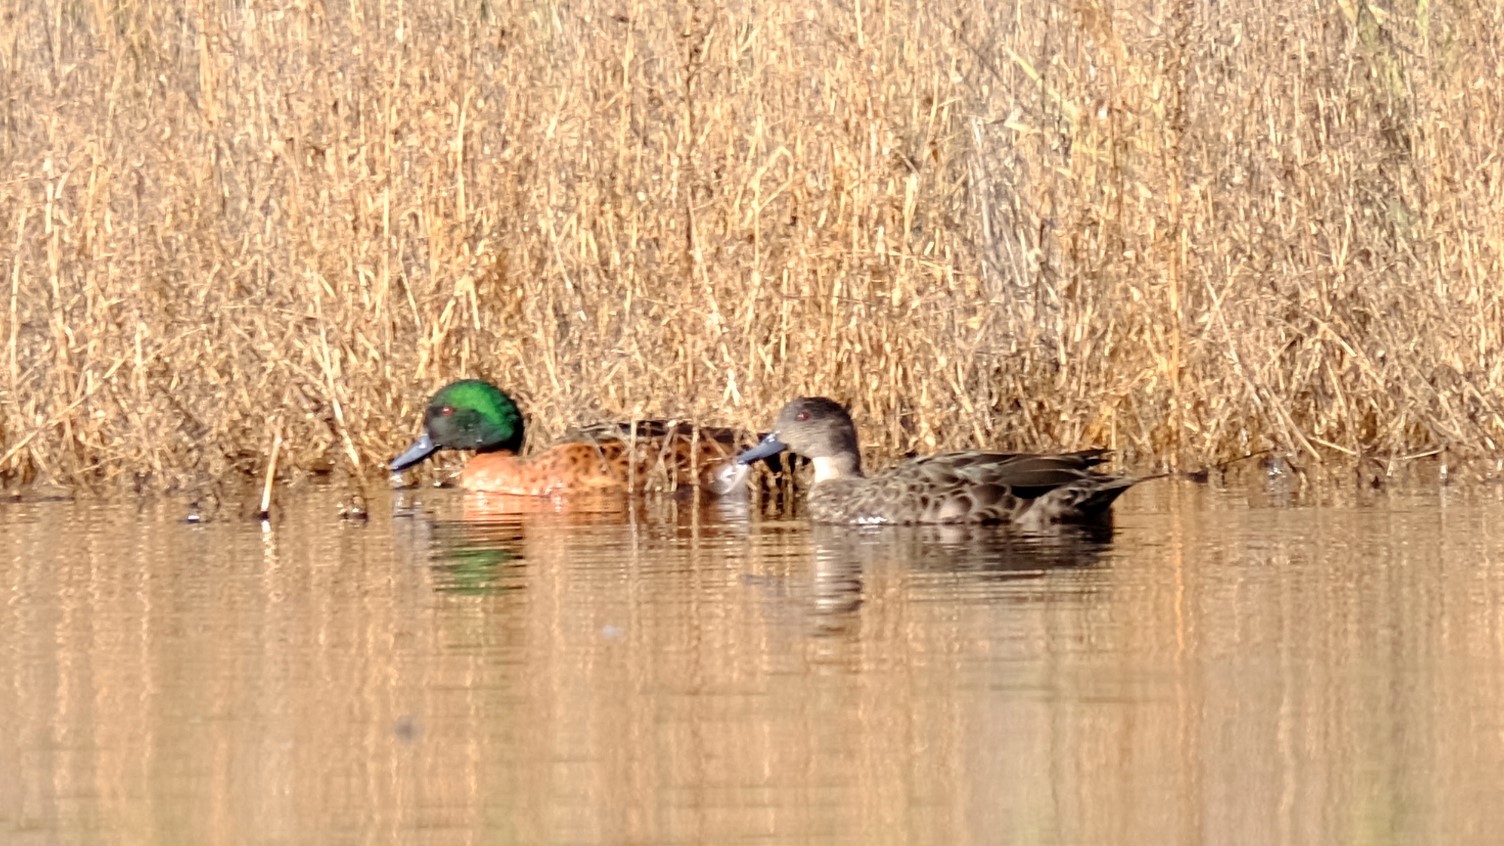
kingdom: Animalia
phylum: Chordata
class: Aves
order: Anseriformes
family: Anatidae
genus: Anas
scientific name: Anas castanea
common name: Chestnut teal
